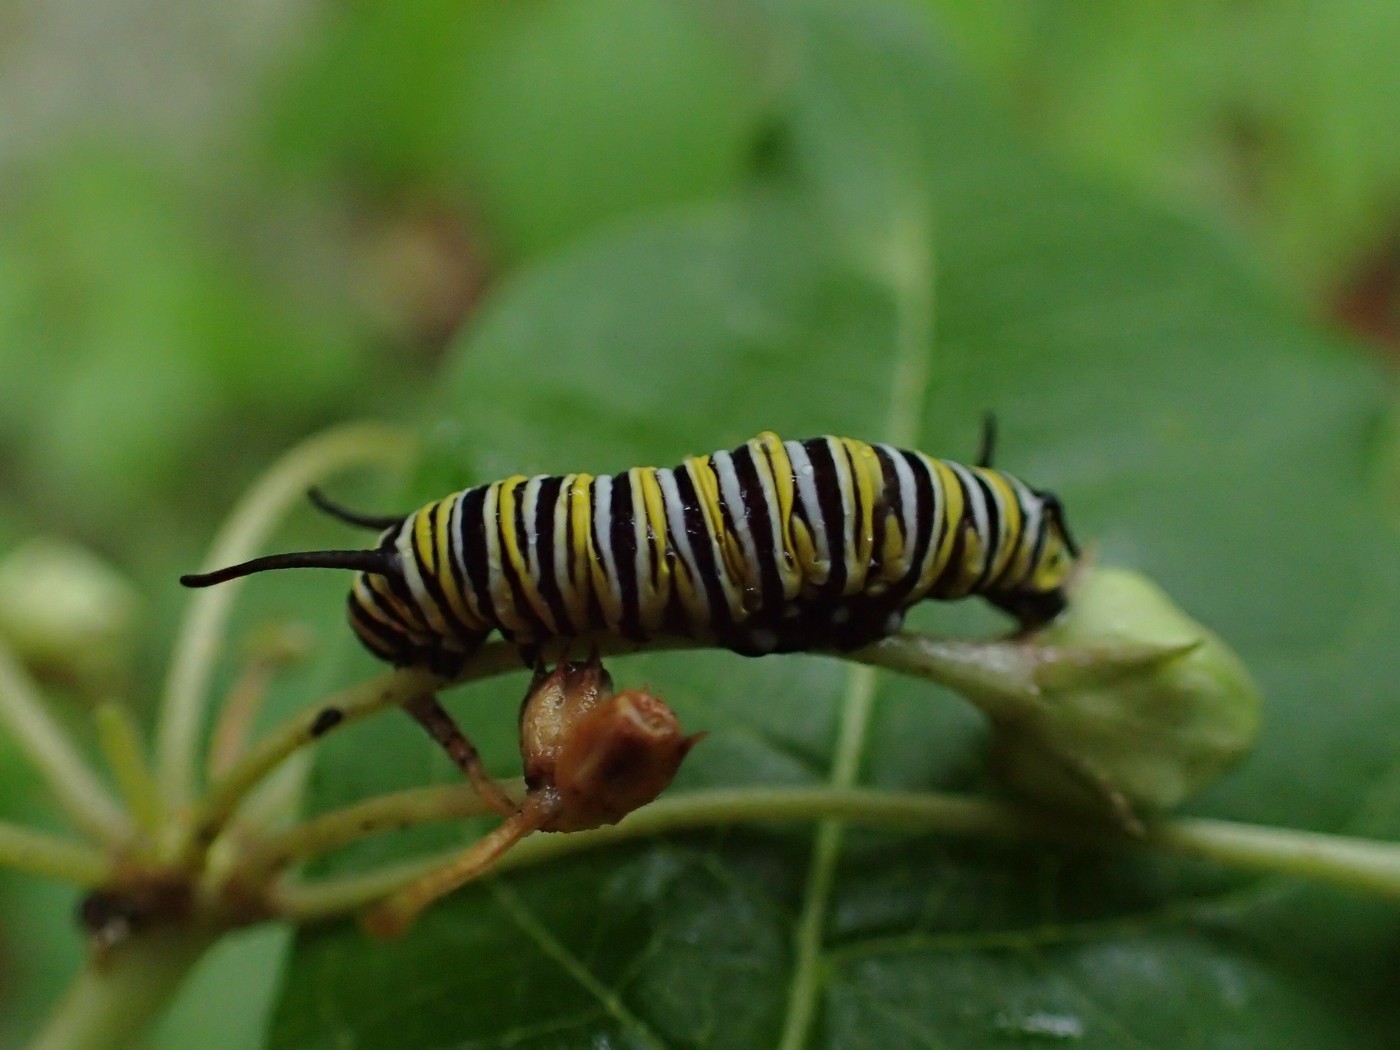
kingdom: Animalia
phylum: Arthropoda
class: Insecta
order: Lepidoptera
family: Nymphalidae
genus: Danaus
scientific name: Danaus plexippus
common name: Monarch
